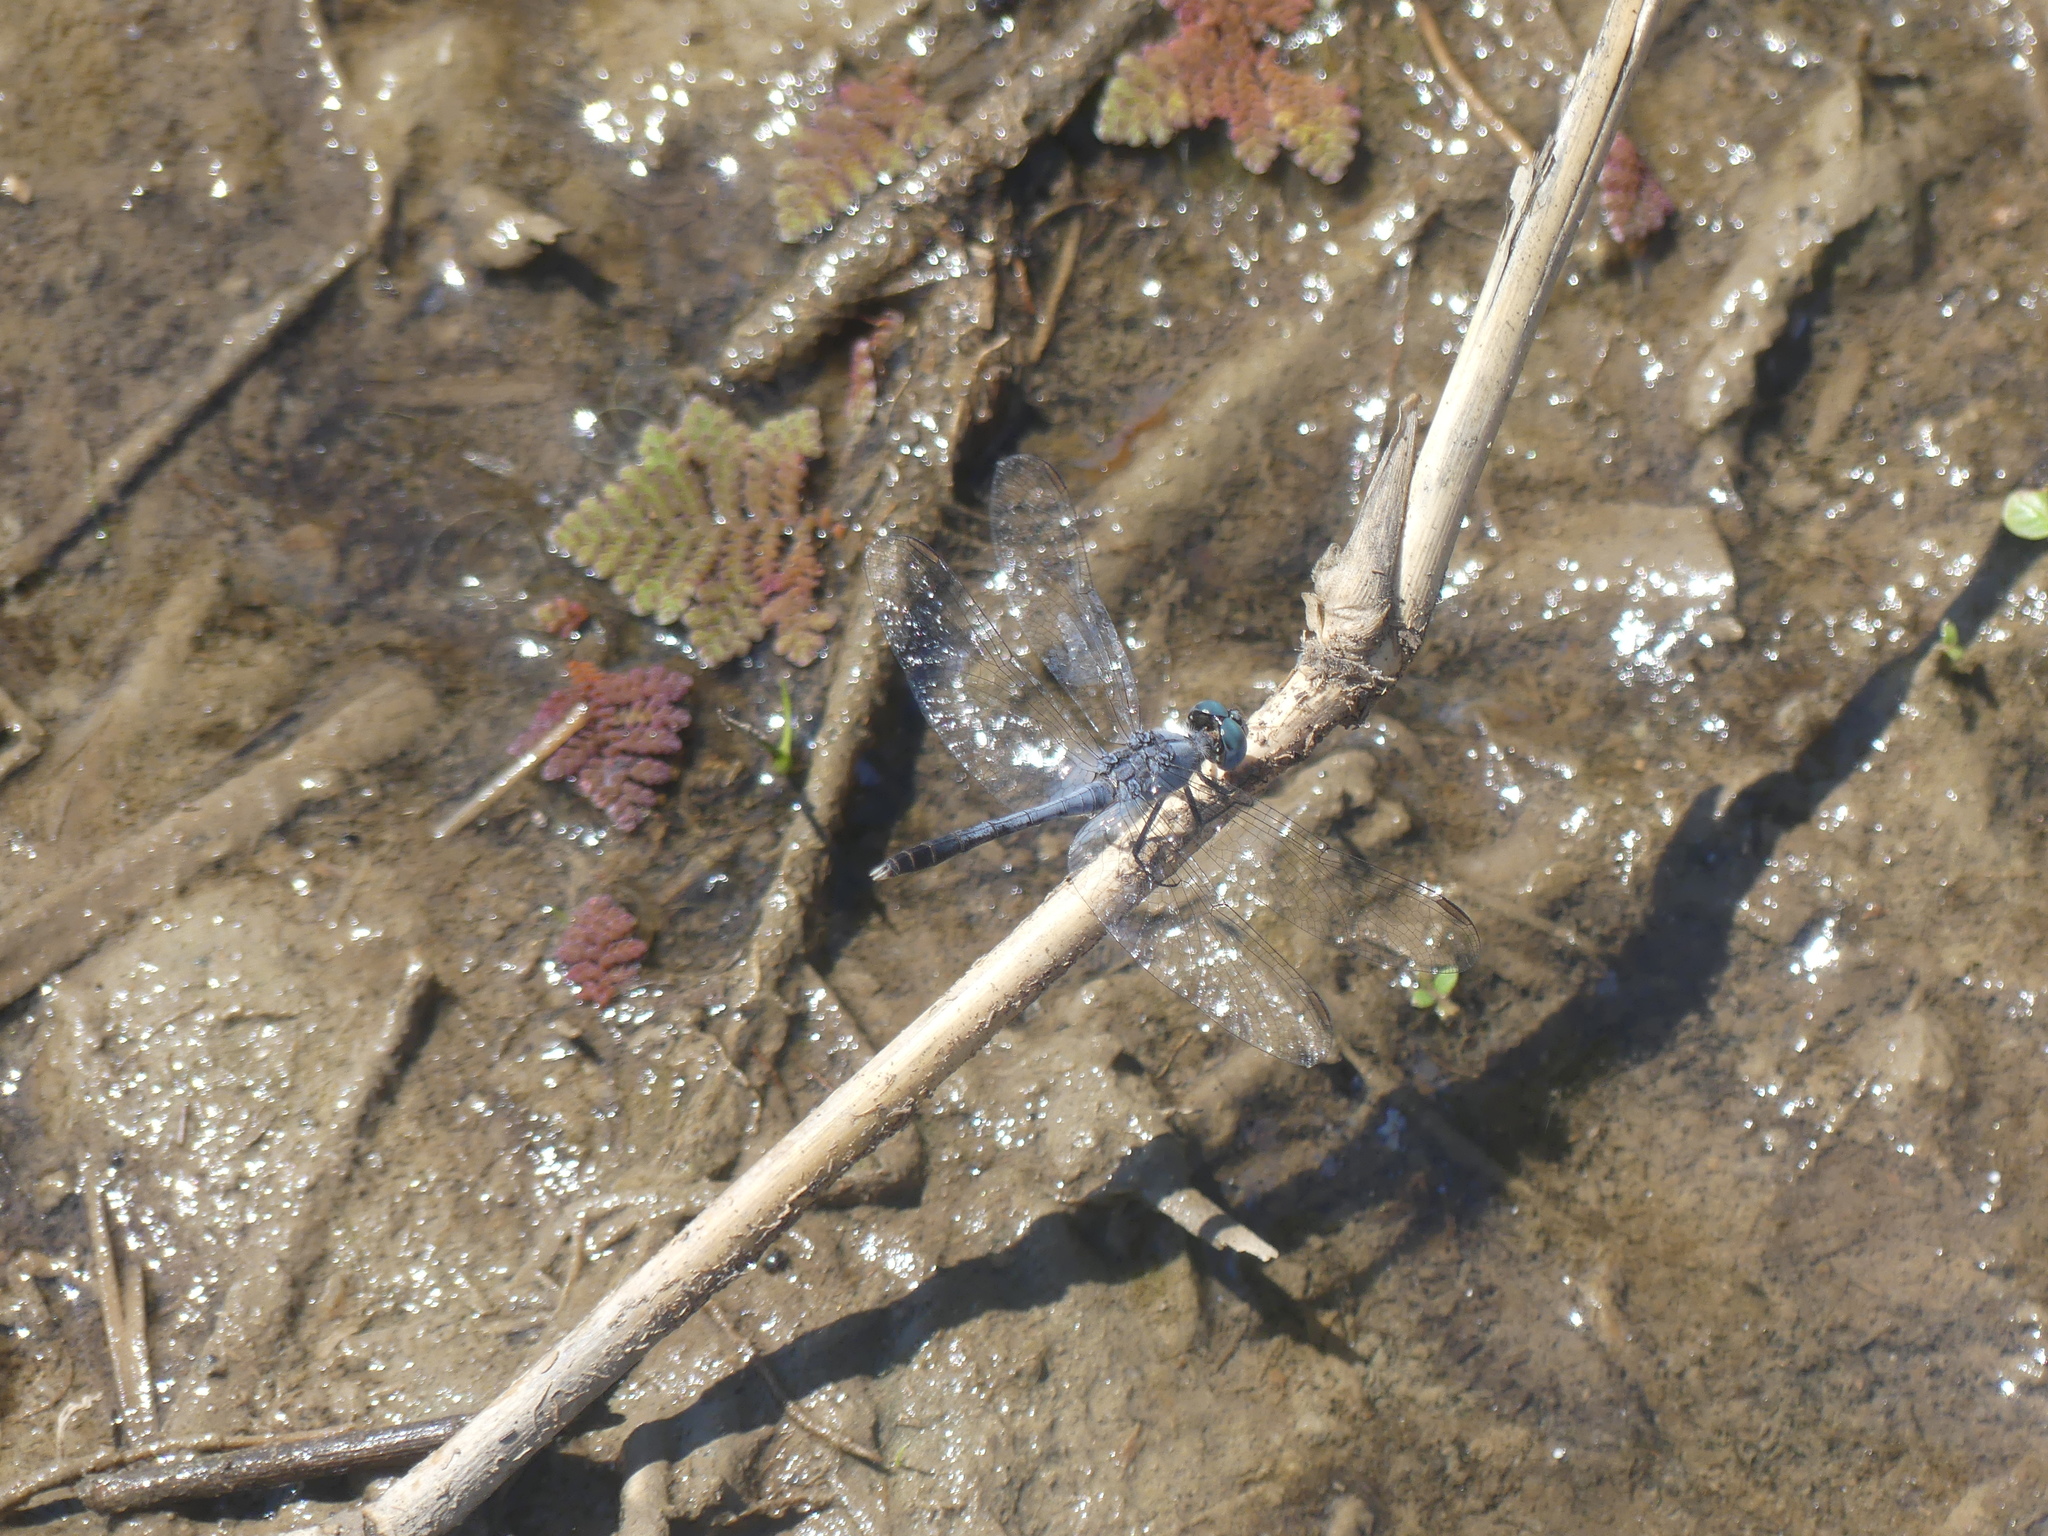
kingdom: Animalia
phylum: Arthropoda
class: Insecta
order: Odonata
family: Libellulidae
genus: Diplacodes
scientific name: Diplacodes trivialis
